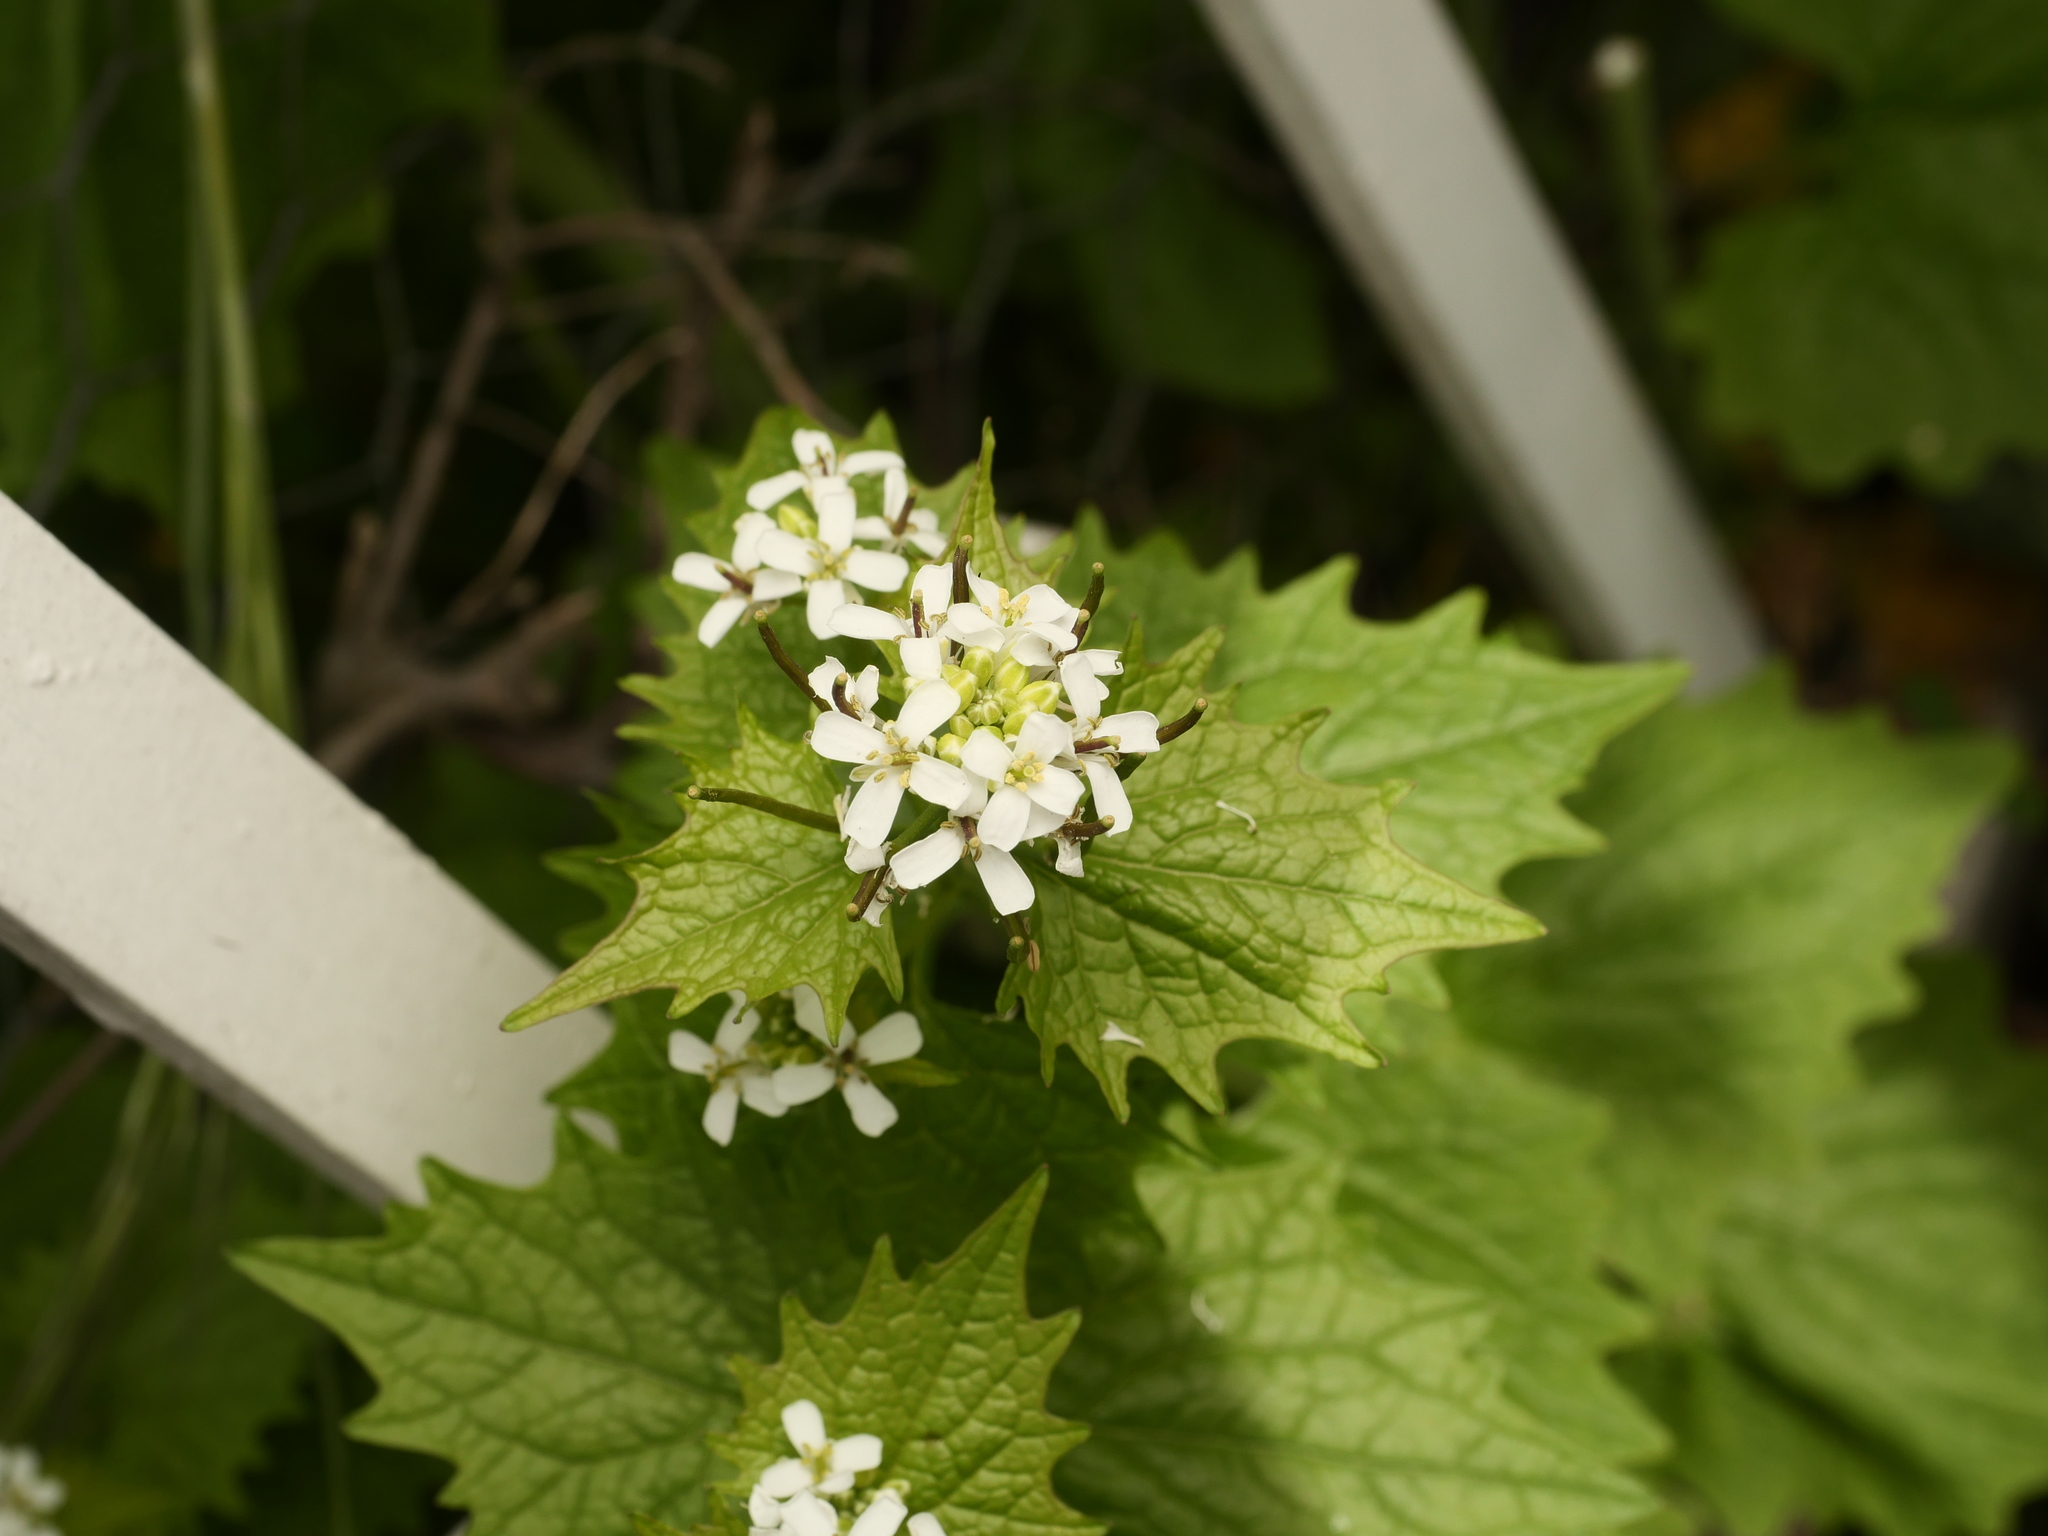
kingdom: Plantae
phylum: Tracheophyta
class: Magnoliopsida
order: Brassicales
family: Brassicaceae
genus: Alliaria
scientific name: Alliaria petiolata
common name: Garlic mustard
